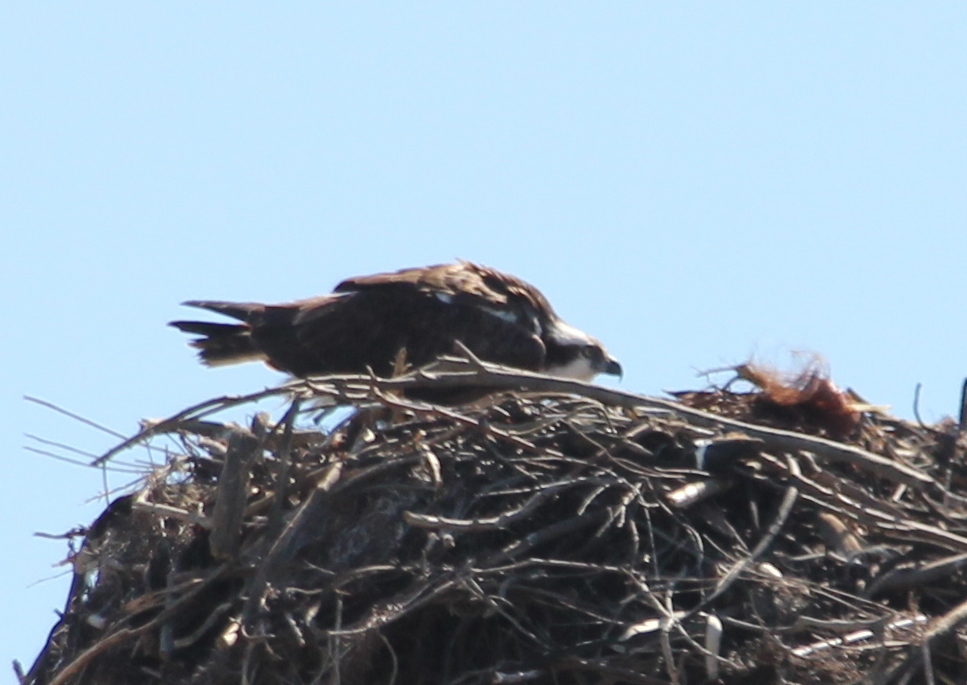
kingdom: Animalia
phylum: Chordata
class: Aves
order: Accipitriformes
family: Pandionidae
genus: Pandion
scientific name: Pandion haliaetus
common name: Osprey
